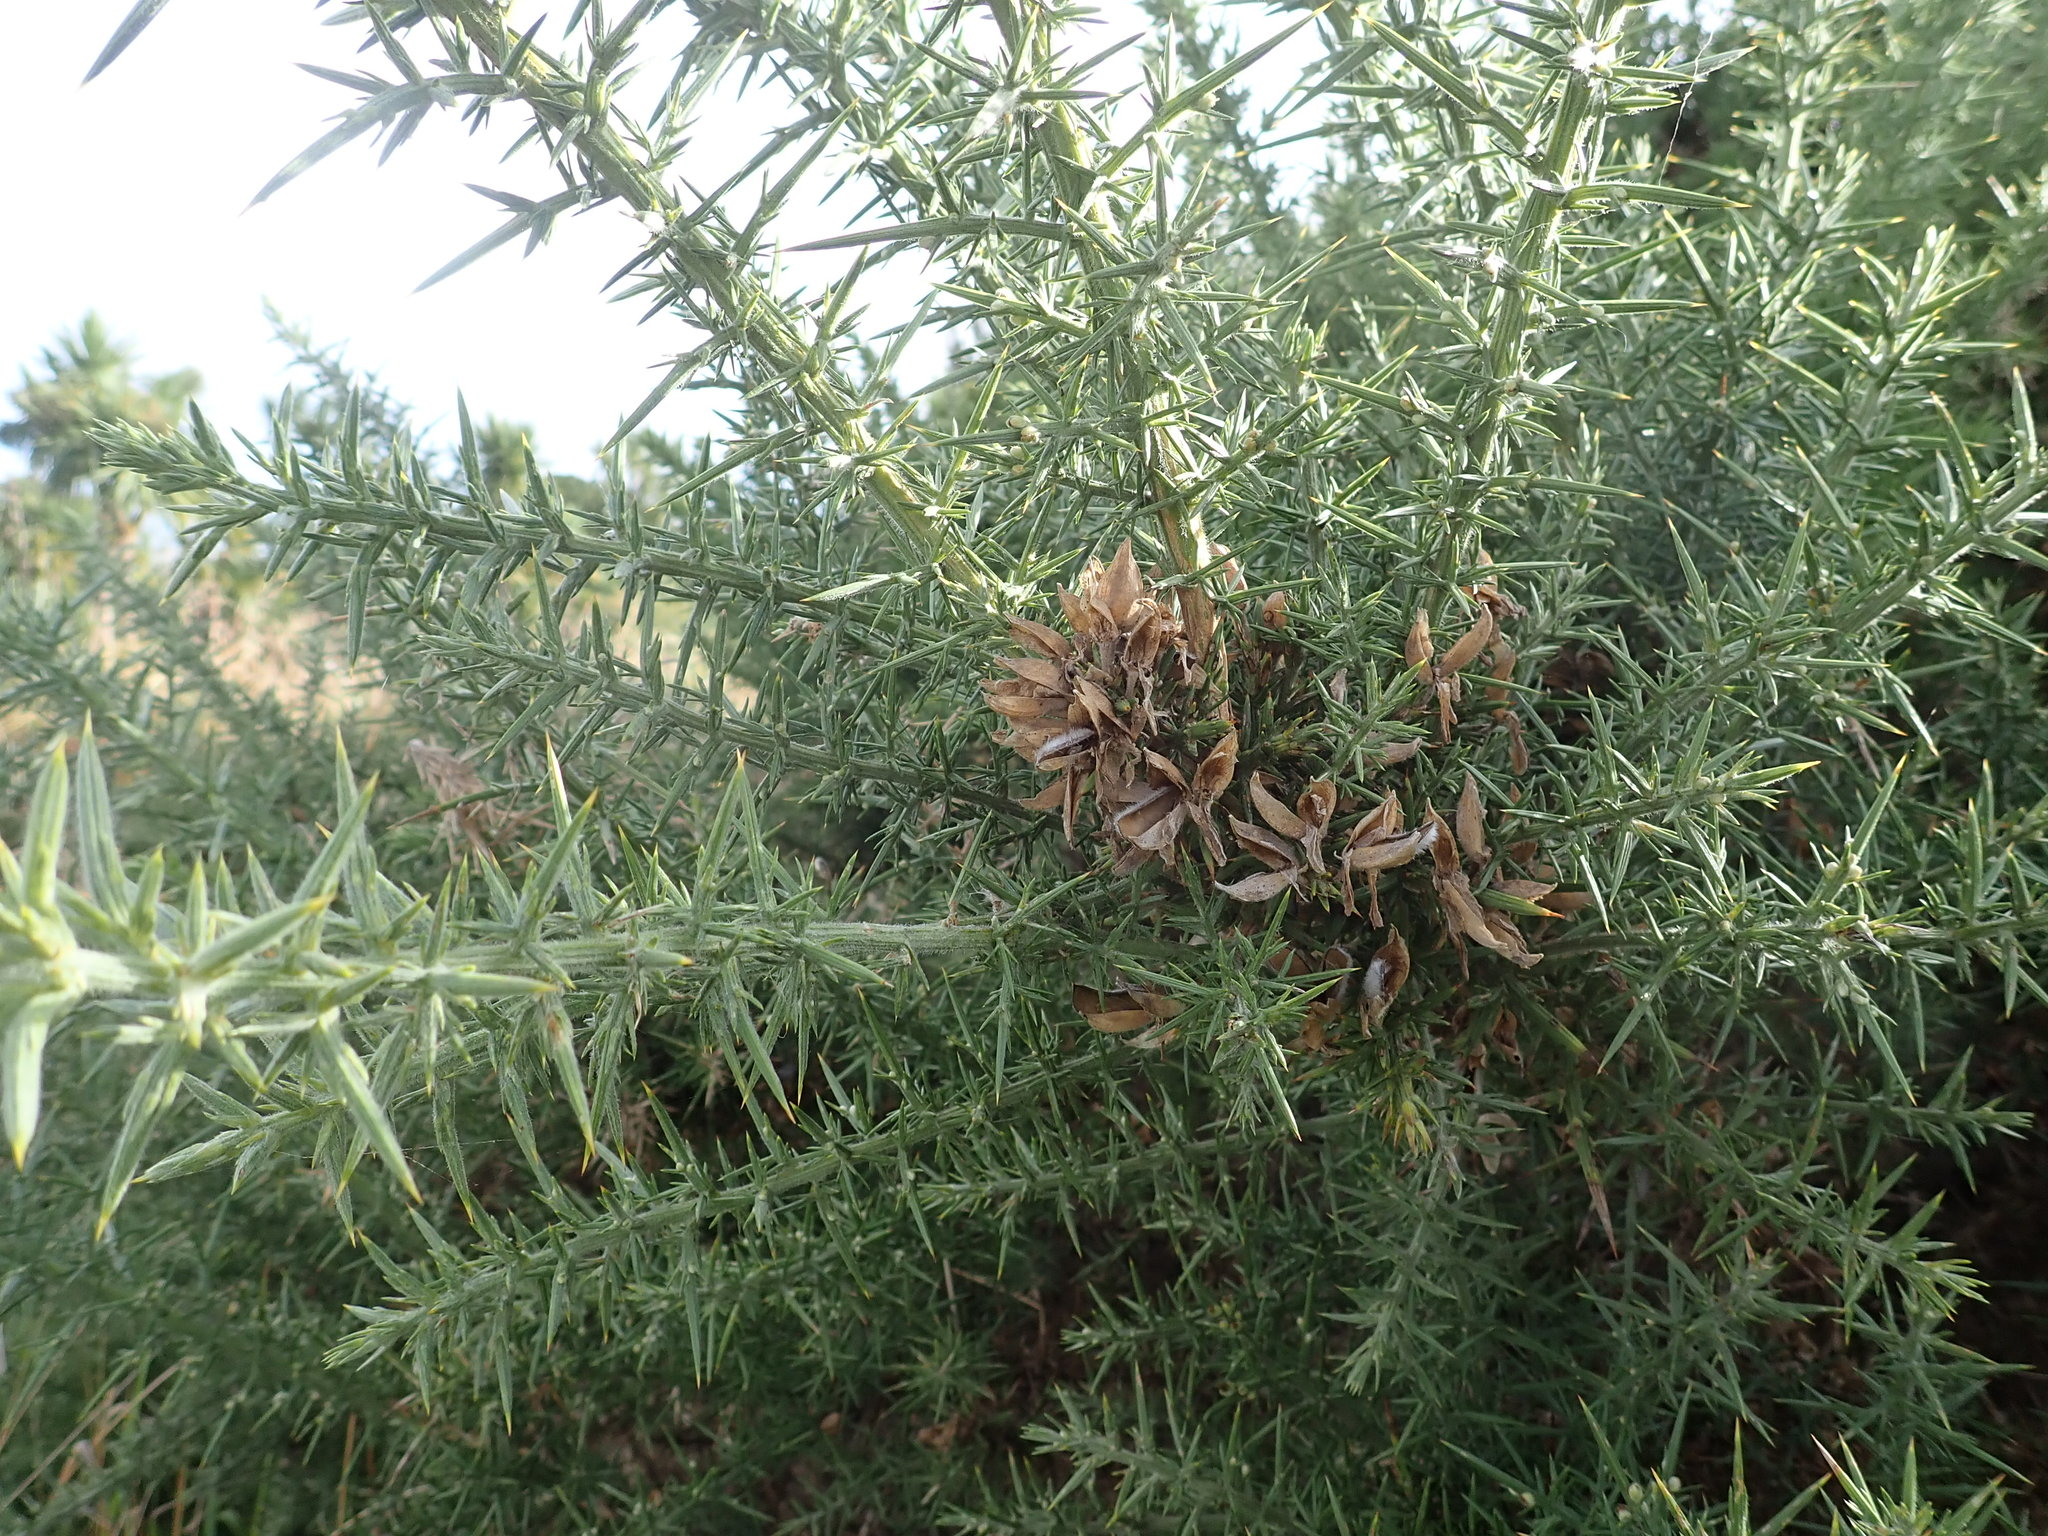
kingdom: Plantae
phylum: Tracheophyta
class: Magnoliopsida
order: Fabales
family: Fabaceae
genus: Ulex
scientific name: Ulex europaeus
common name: Common gorse
